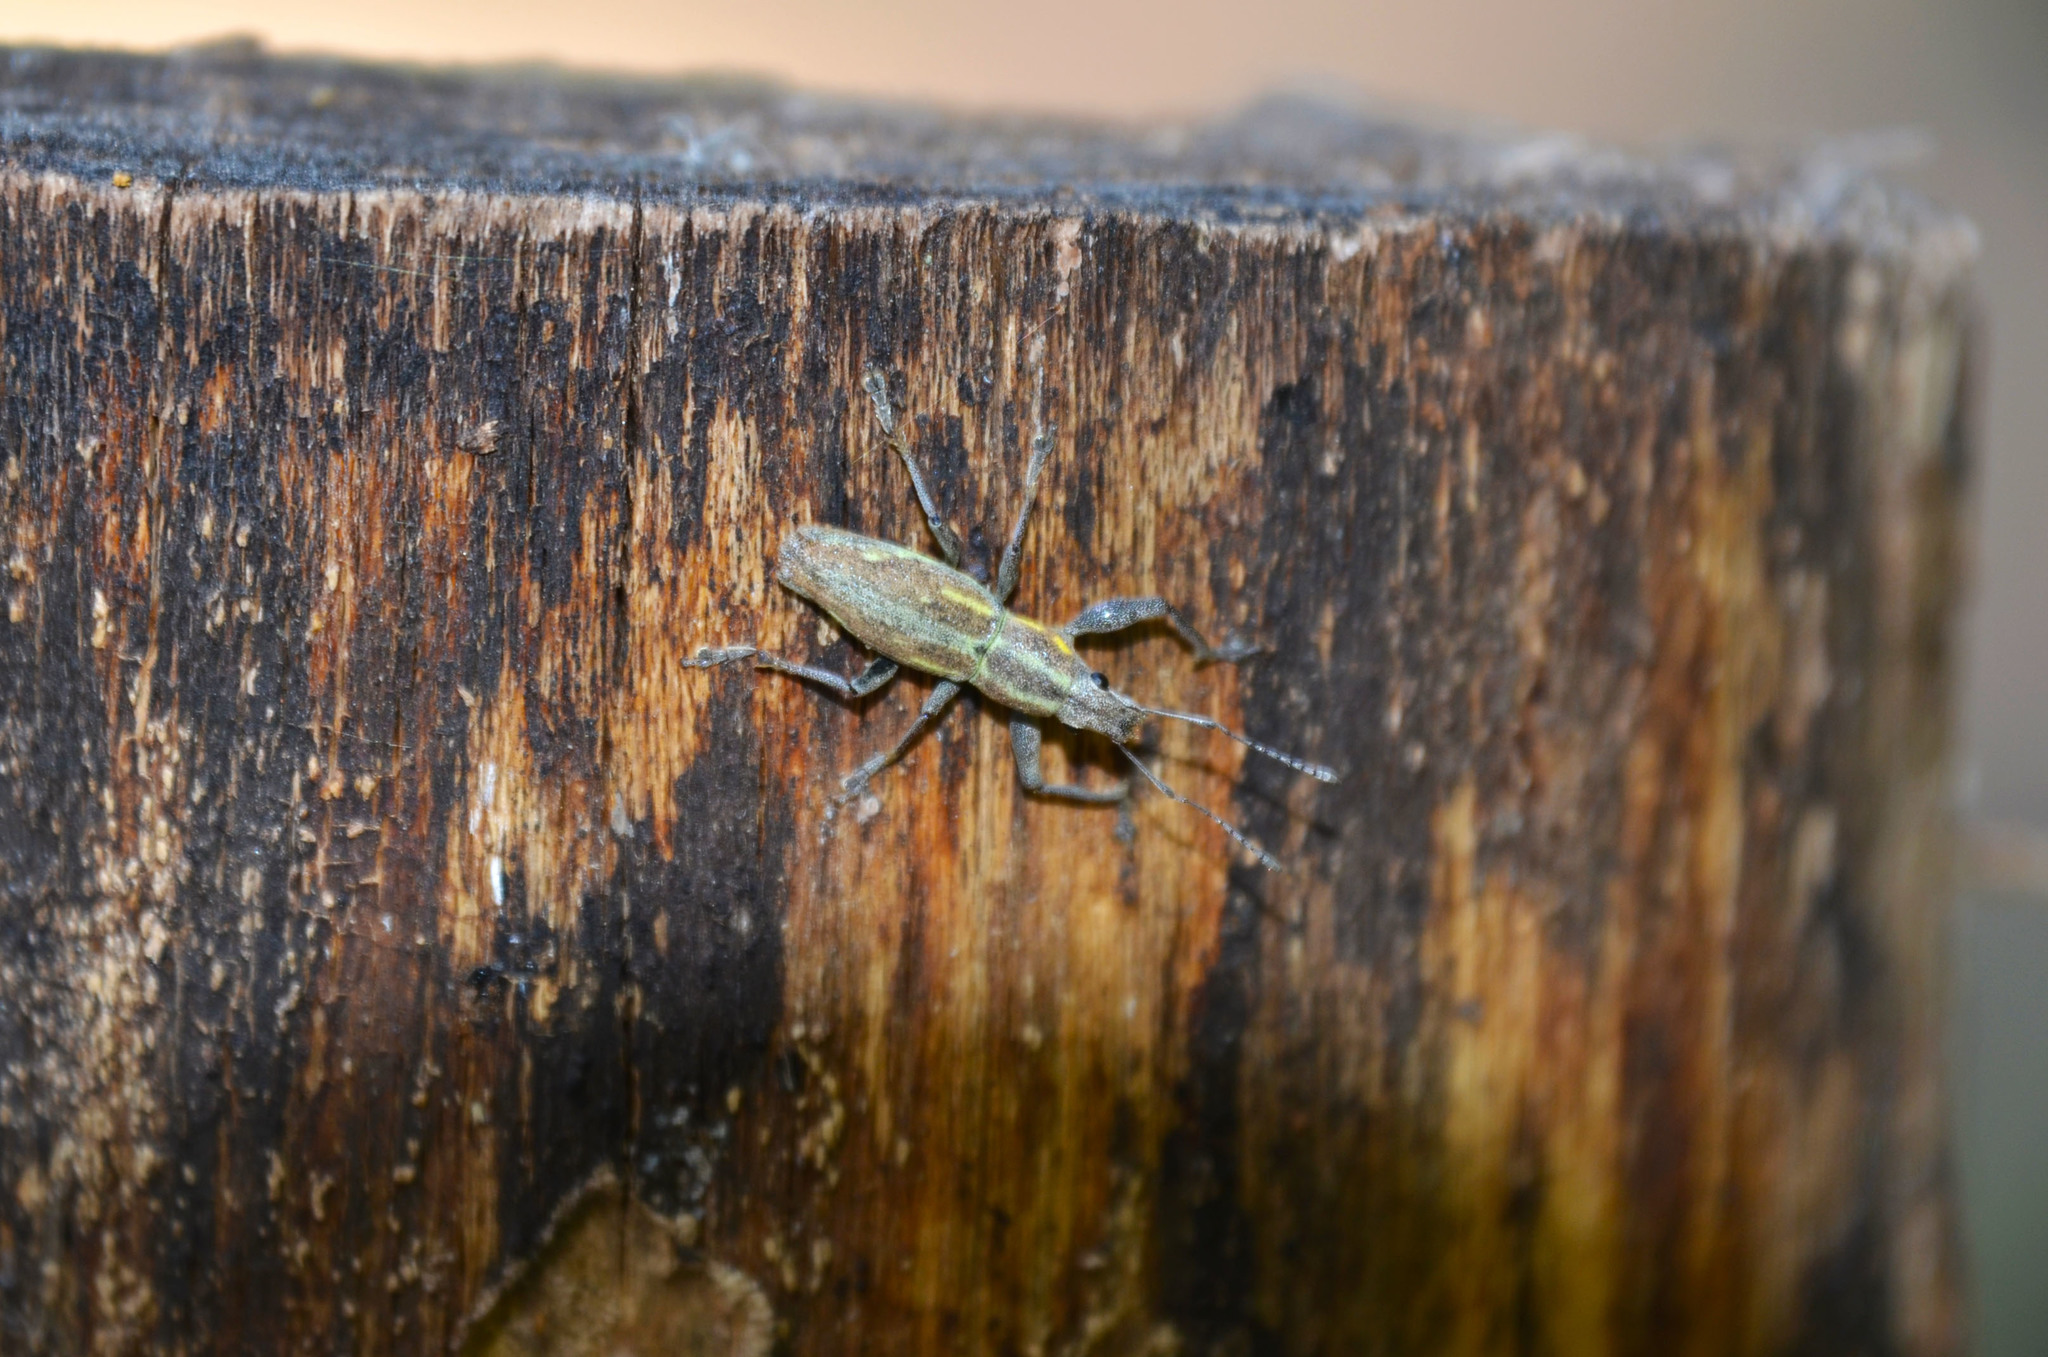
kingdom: Animalia
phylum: Arthropoda
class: Insecta
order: Coleoptera
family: Curculionidae
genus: Naupactus
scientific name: Naupactus xanthographus
